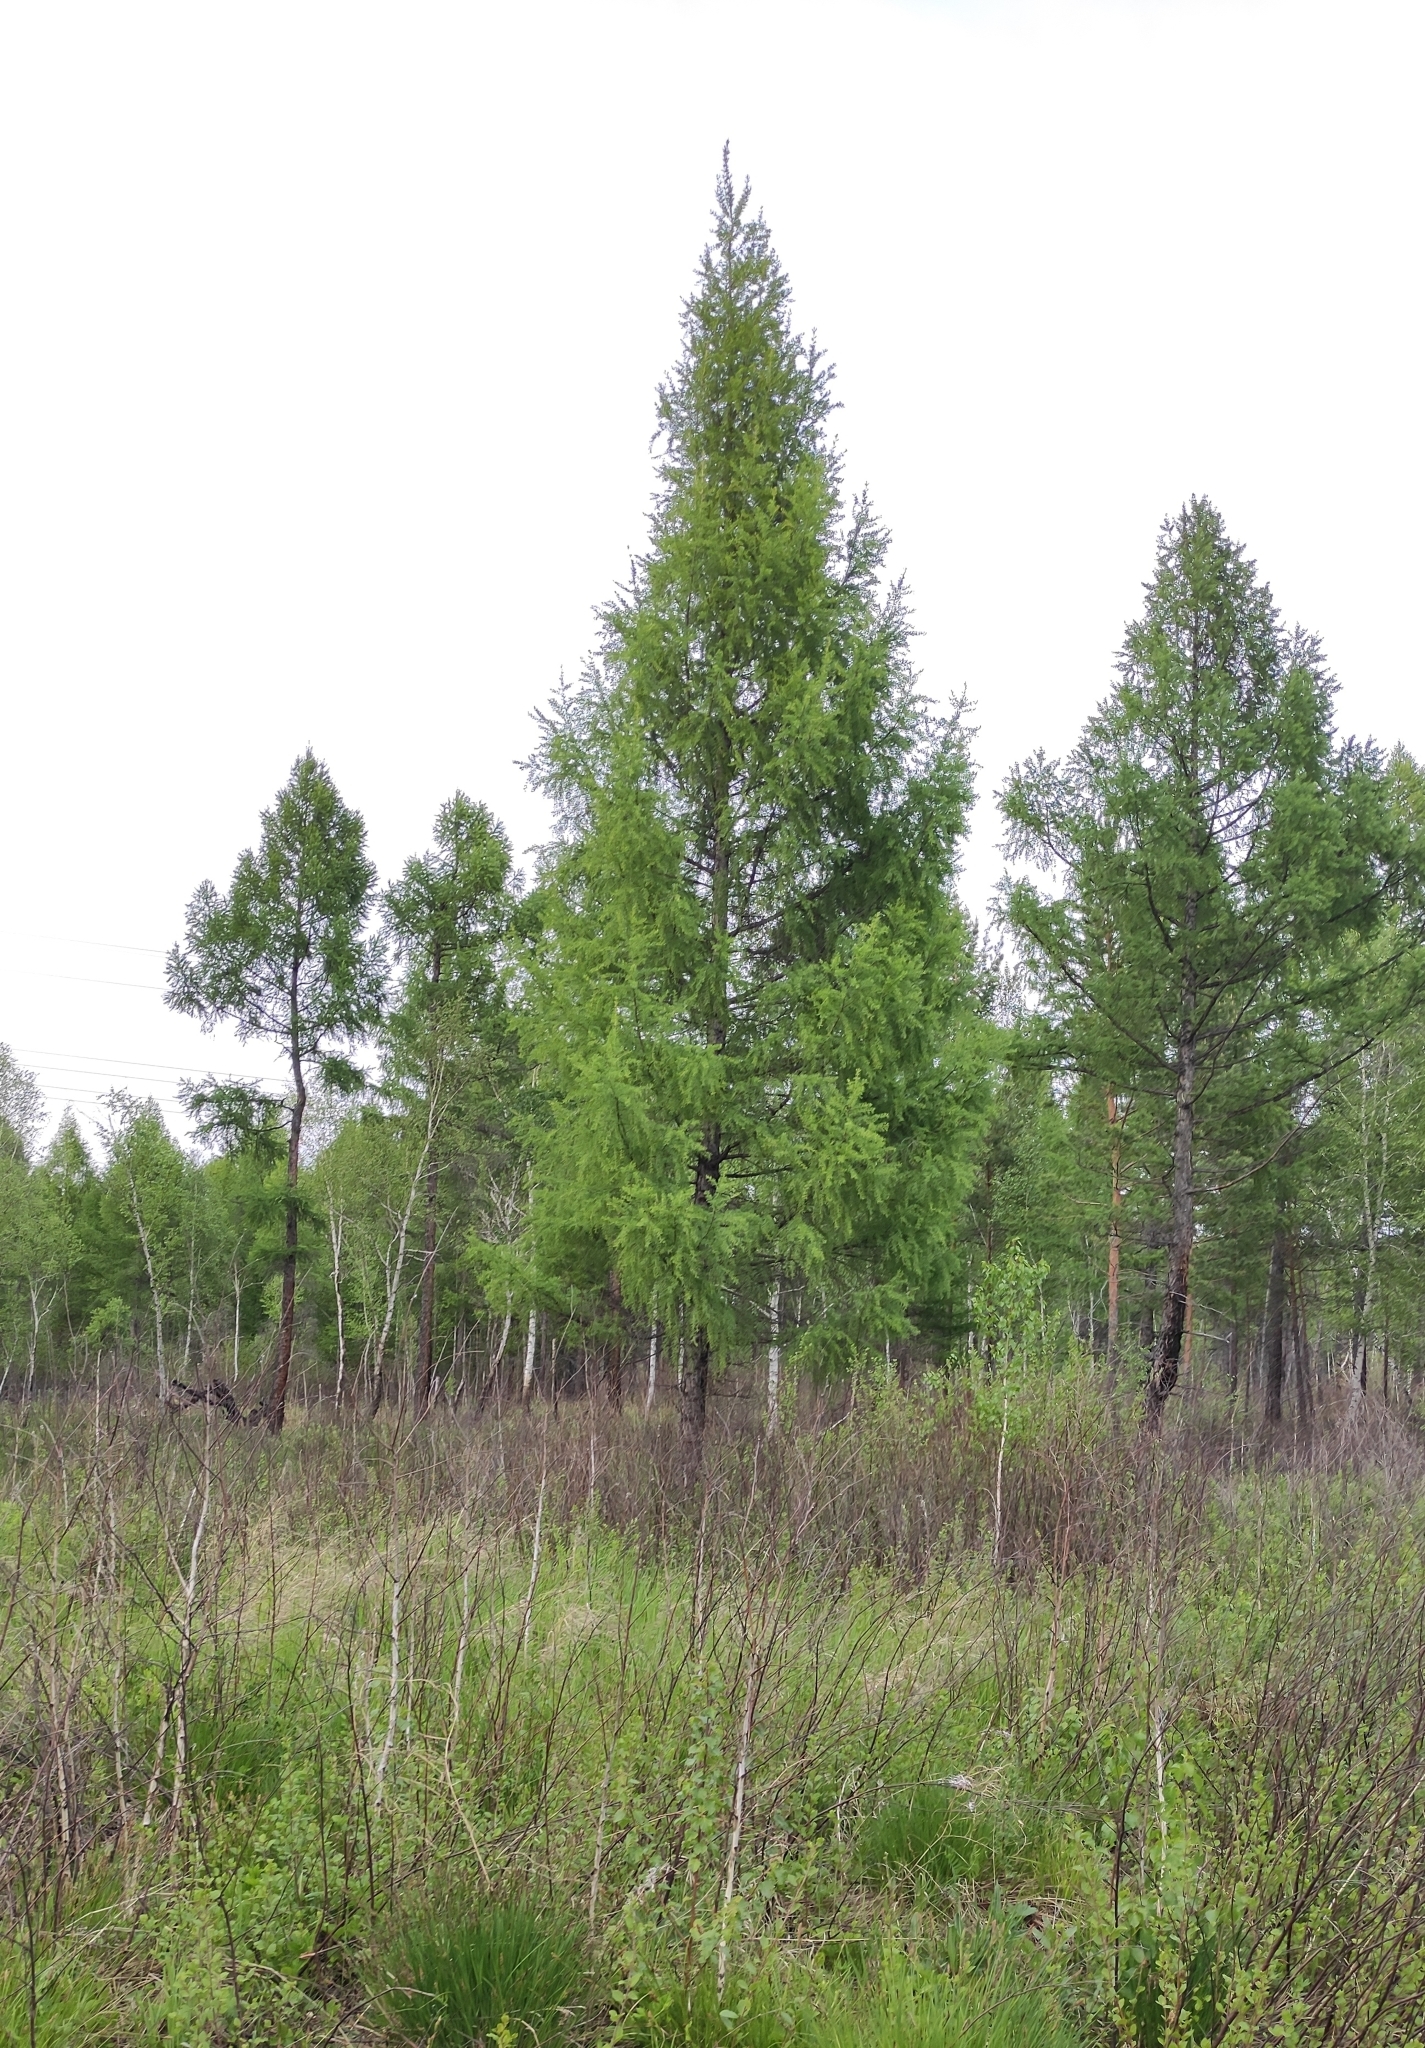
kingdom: Plantae
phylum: Tracheophyta
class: Pinopsida
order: Pinales
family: Pinaceae
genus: Larix
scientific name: Larix sibirica
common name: Siberian larch
